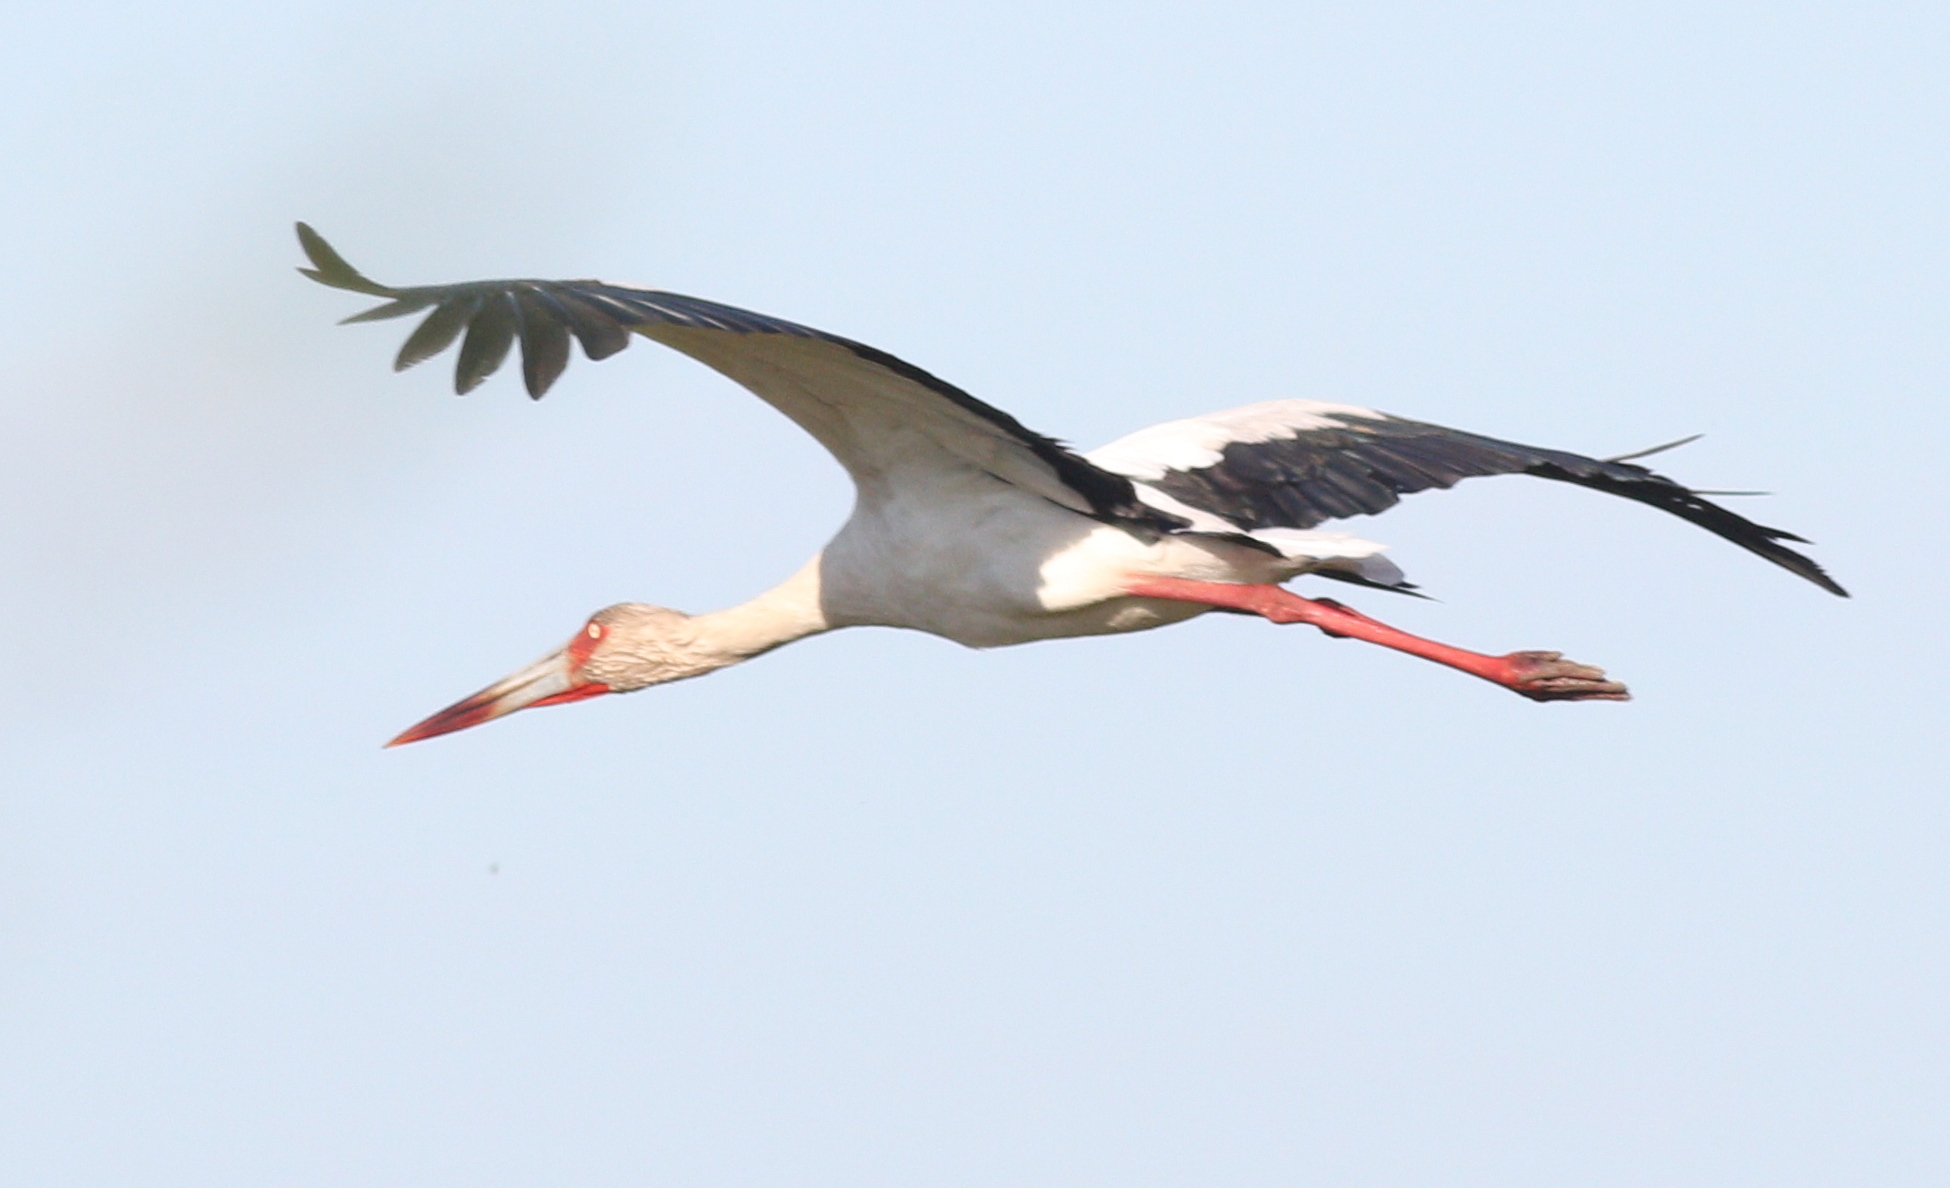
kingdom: Animalia
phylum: Chordata
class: Aves
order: Ciconiiformes
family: Ciconiidae
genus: Ciconia
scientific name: Ciconia maguari
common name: Maguari stork
